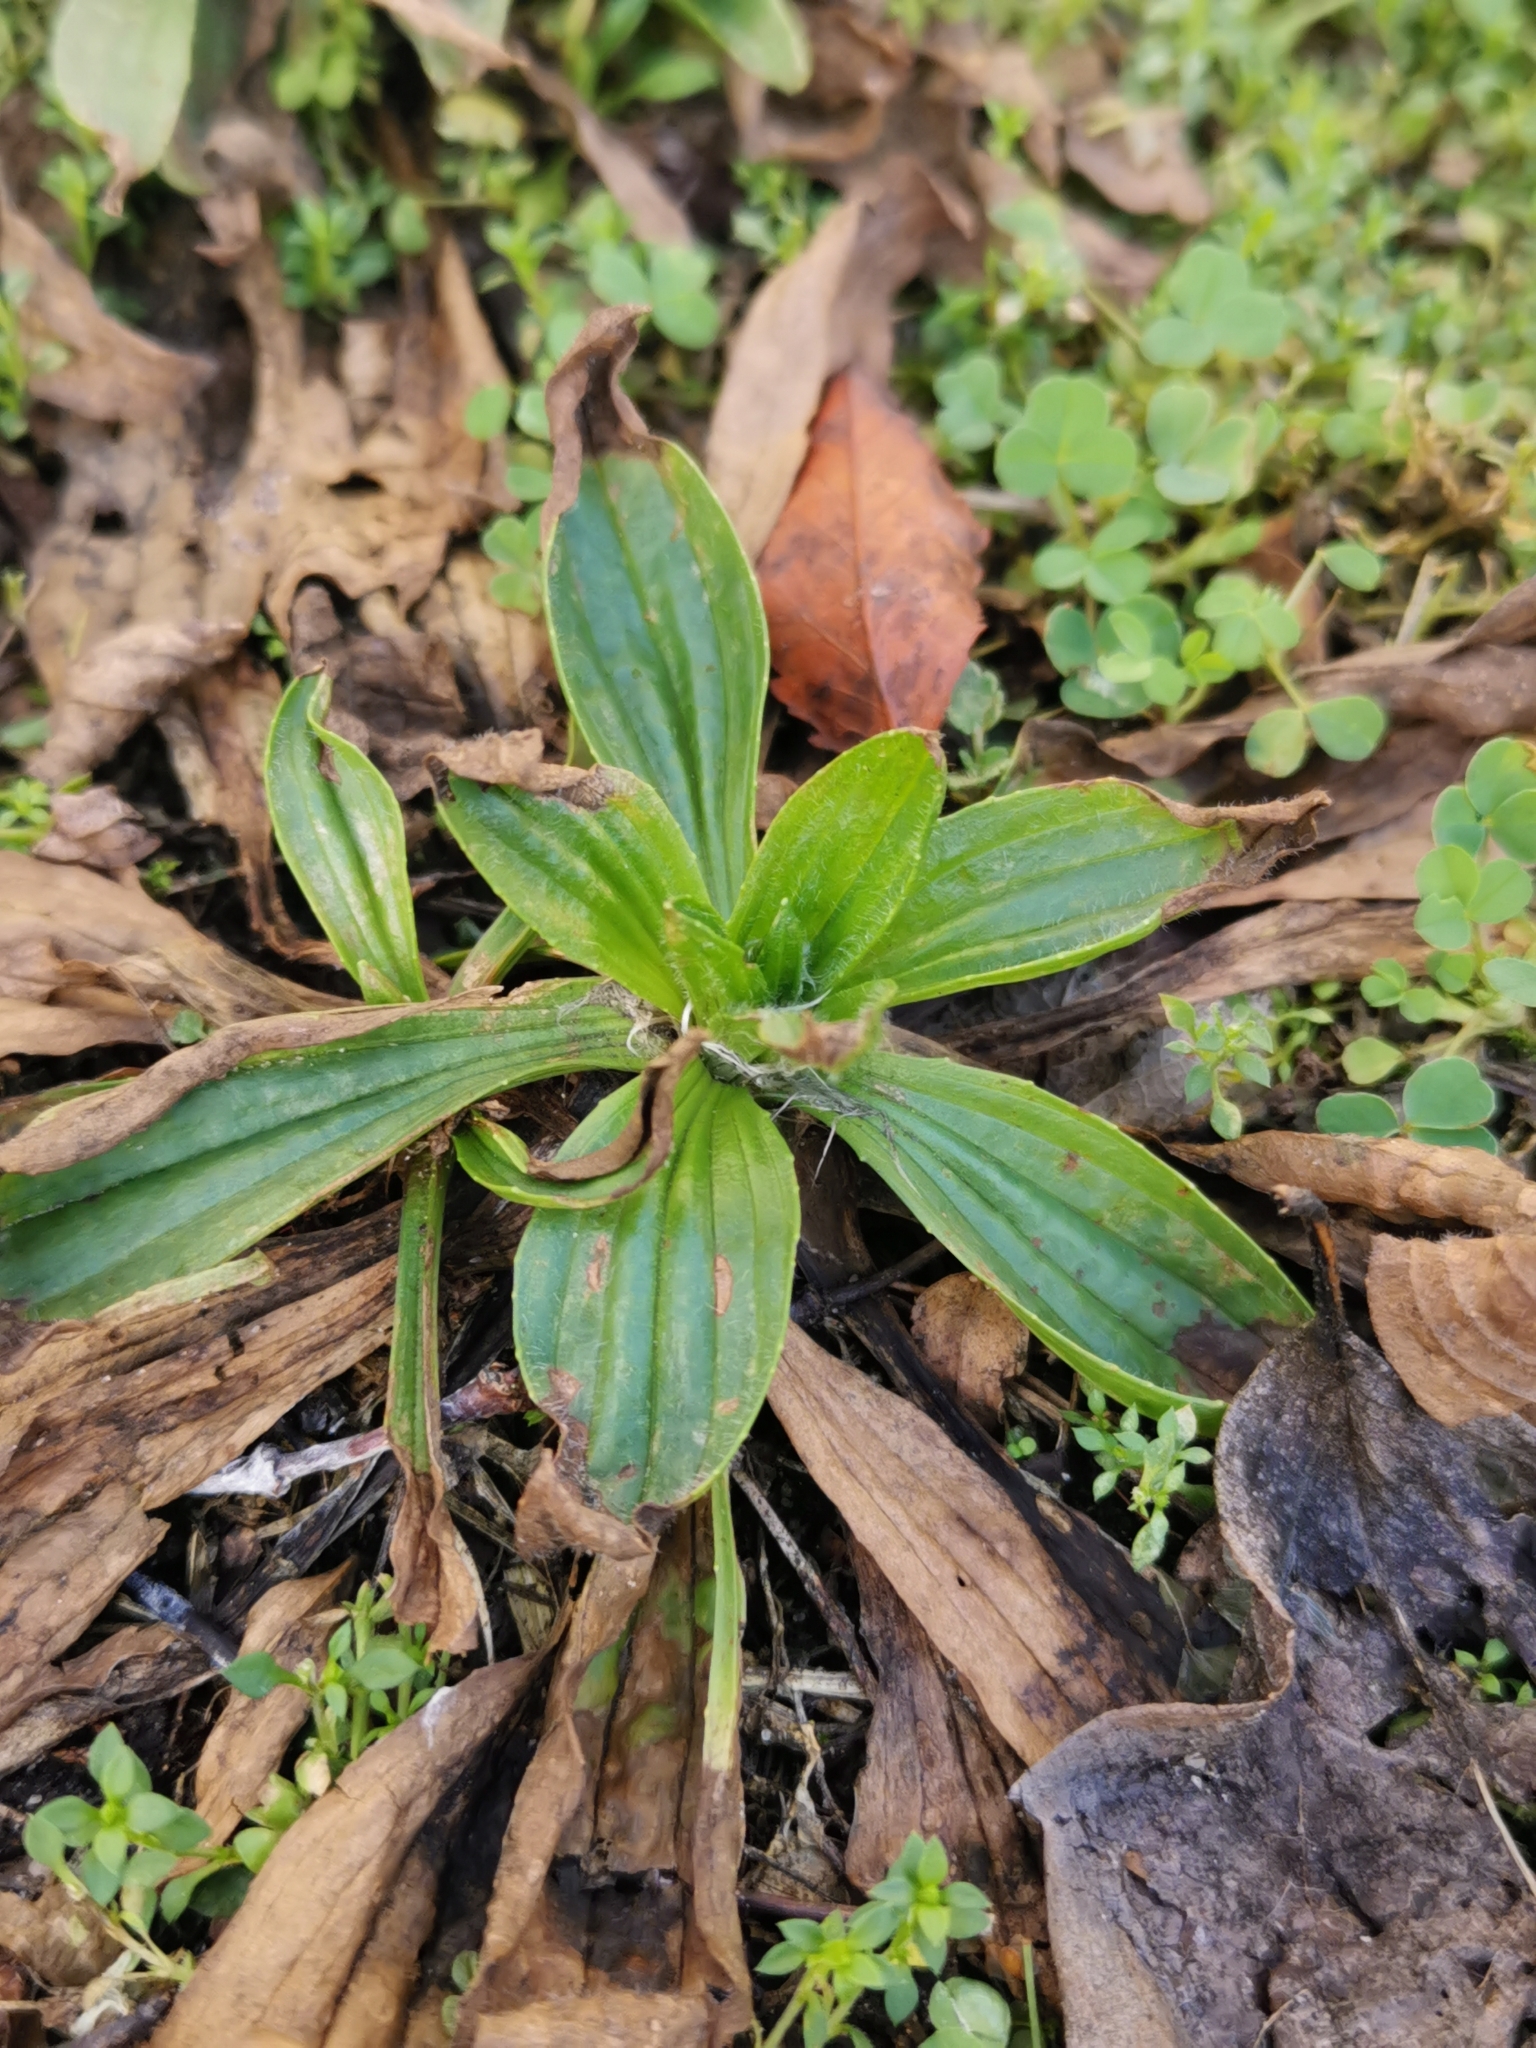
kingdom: Plantae
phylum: Tracheophyta
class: Magnoliopsida
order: Lamiales
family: Plantaginaceae
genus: Plantago
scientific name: Plantago lanceolata
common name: Ribwort plantain
